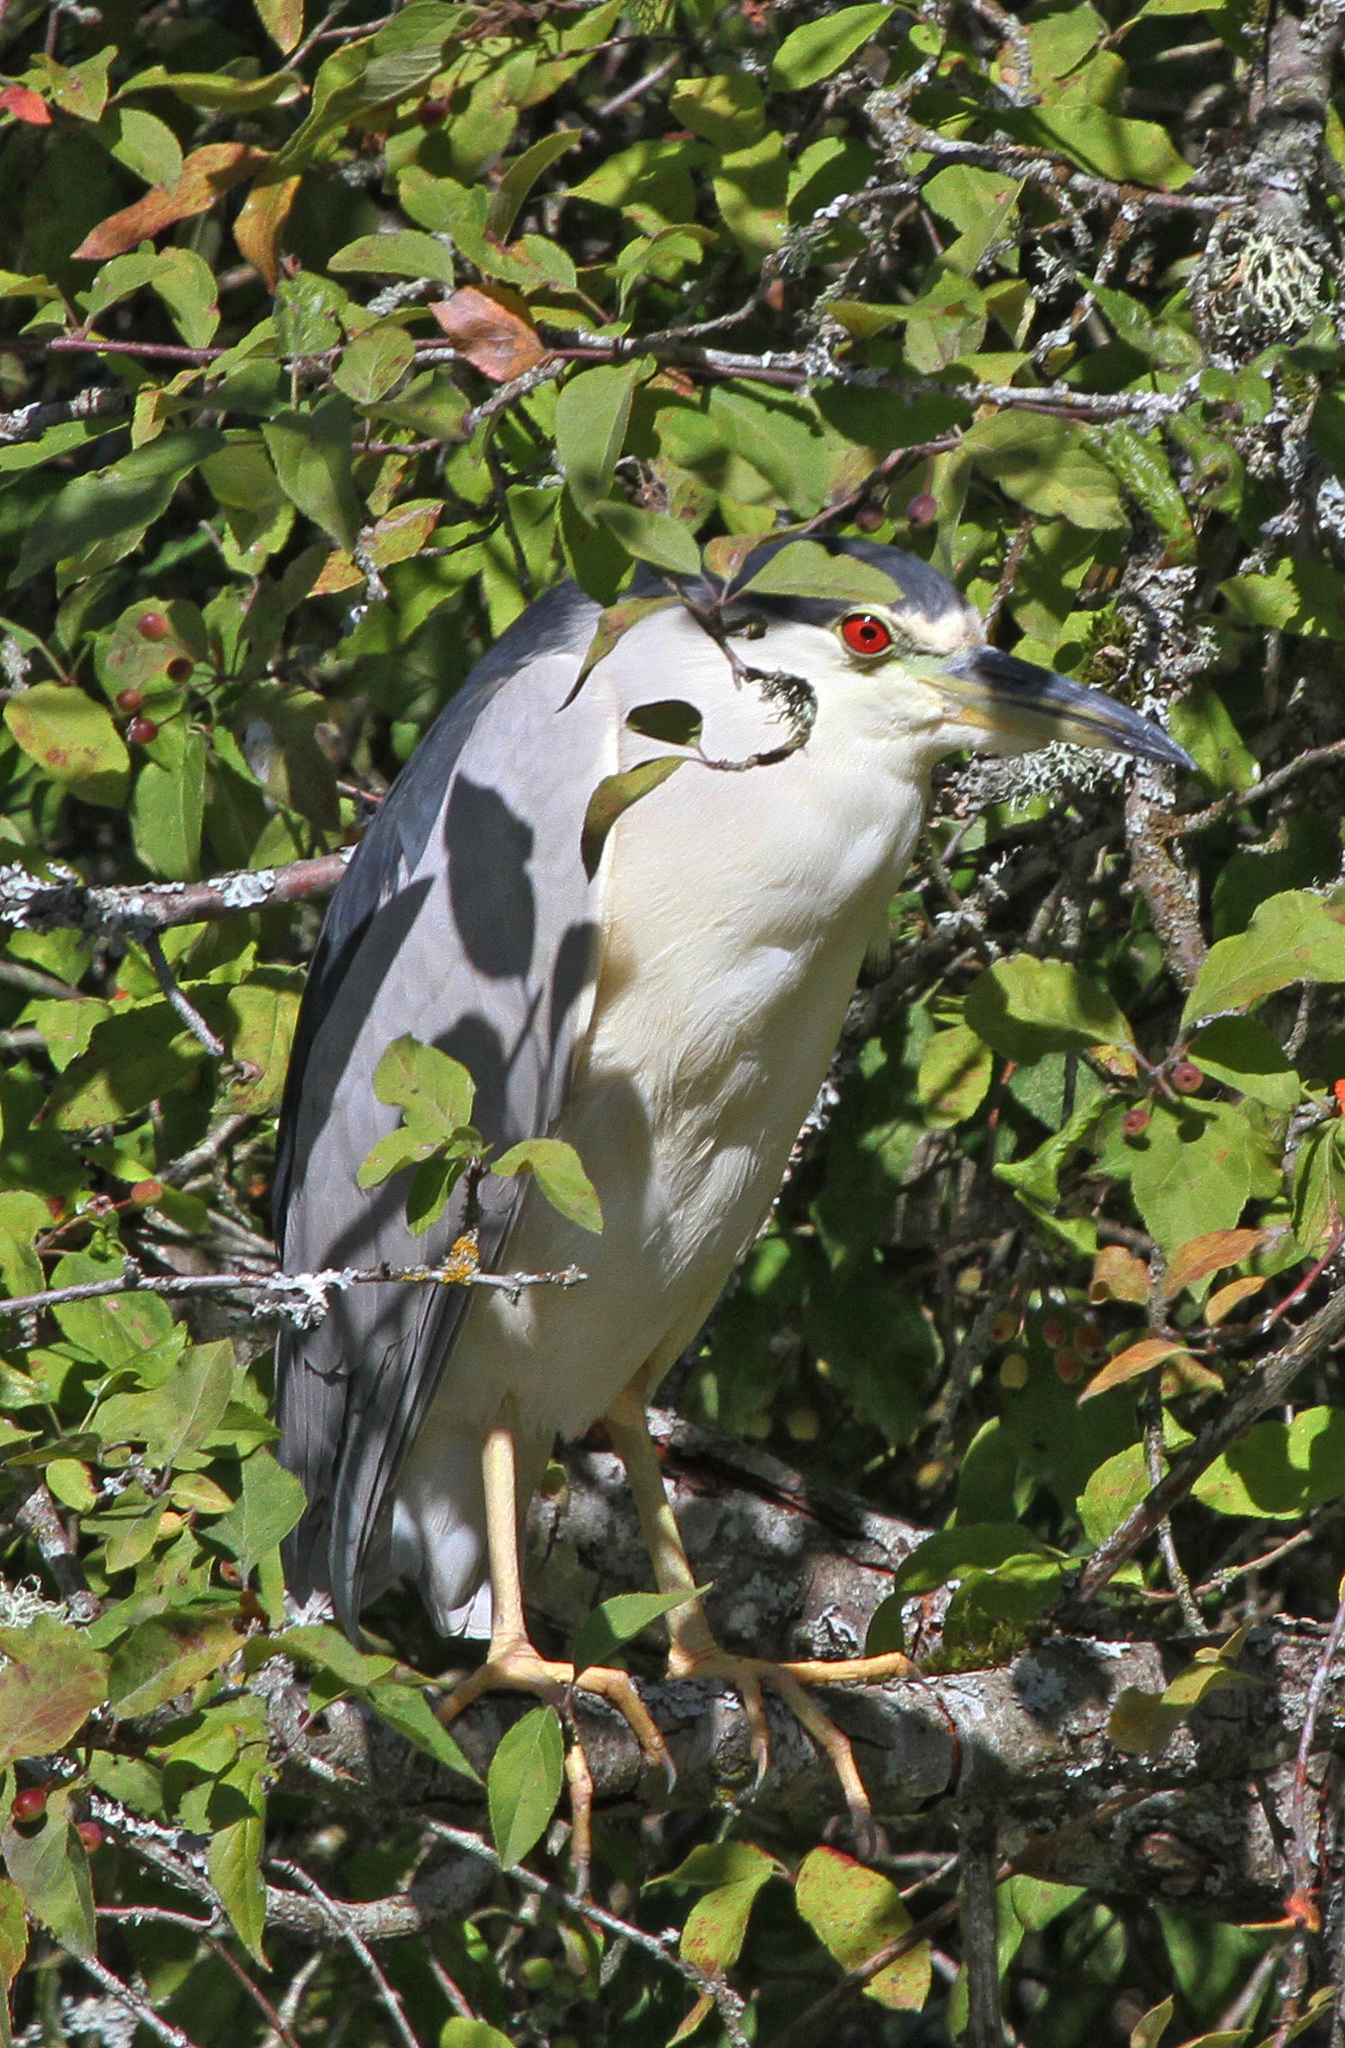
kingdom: Animalia
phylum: Chordata
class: Aves
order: Pelecaniformes
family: Ardeidae
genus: Nycticorax
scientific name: Nycticorax nycticorax
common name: Black-crowned night heron
